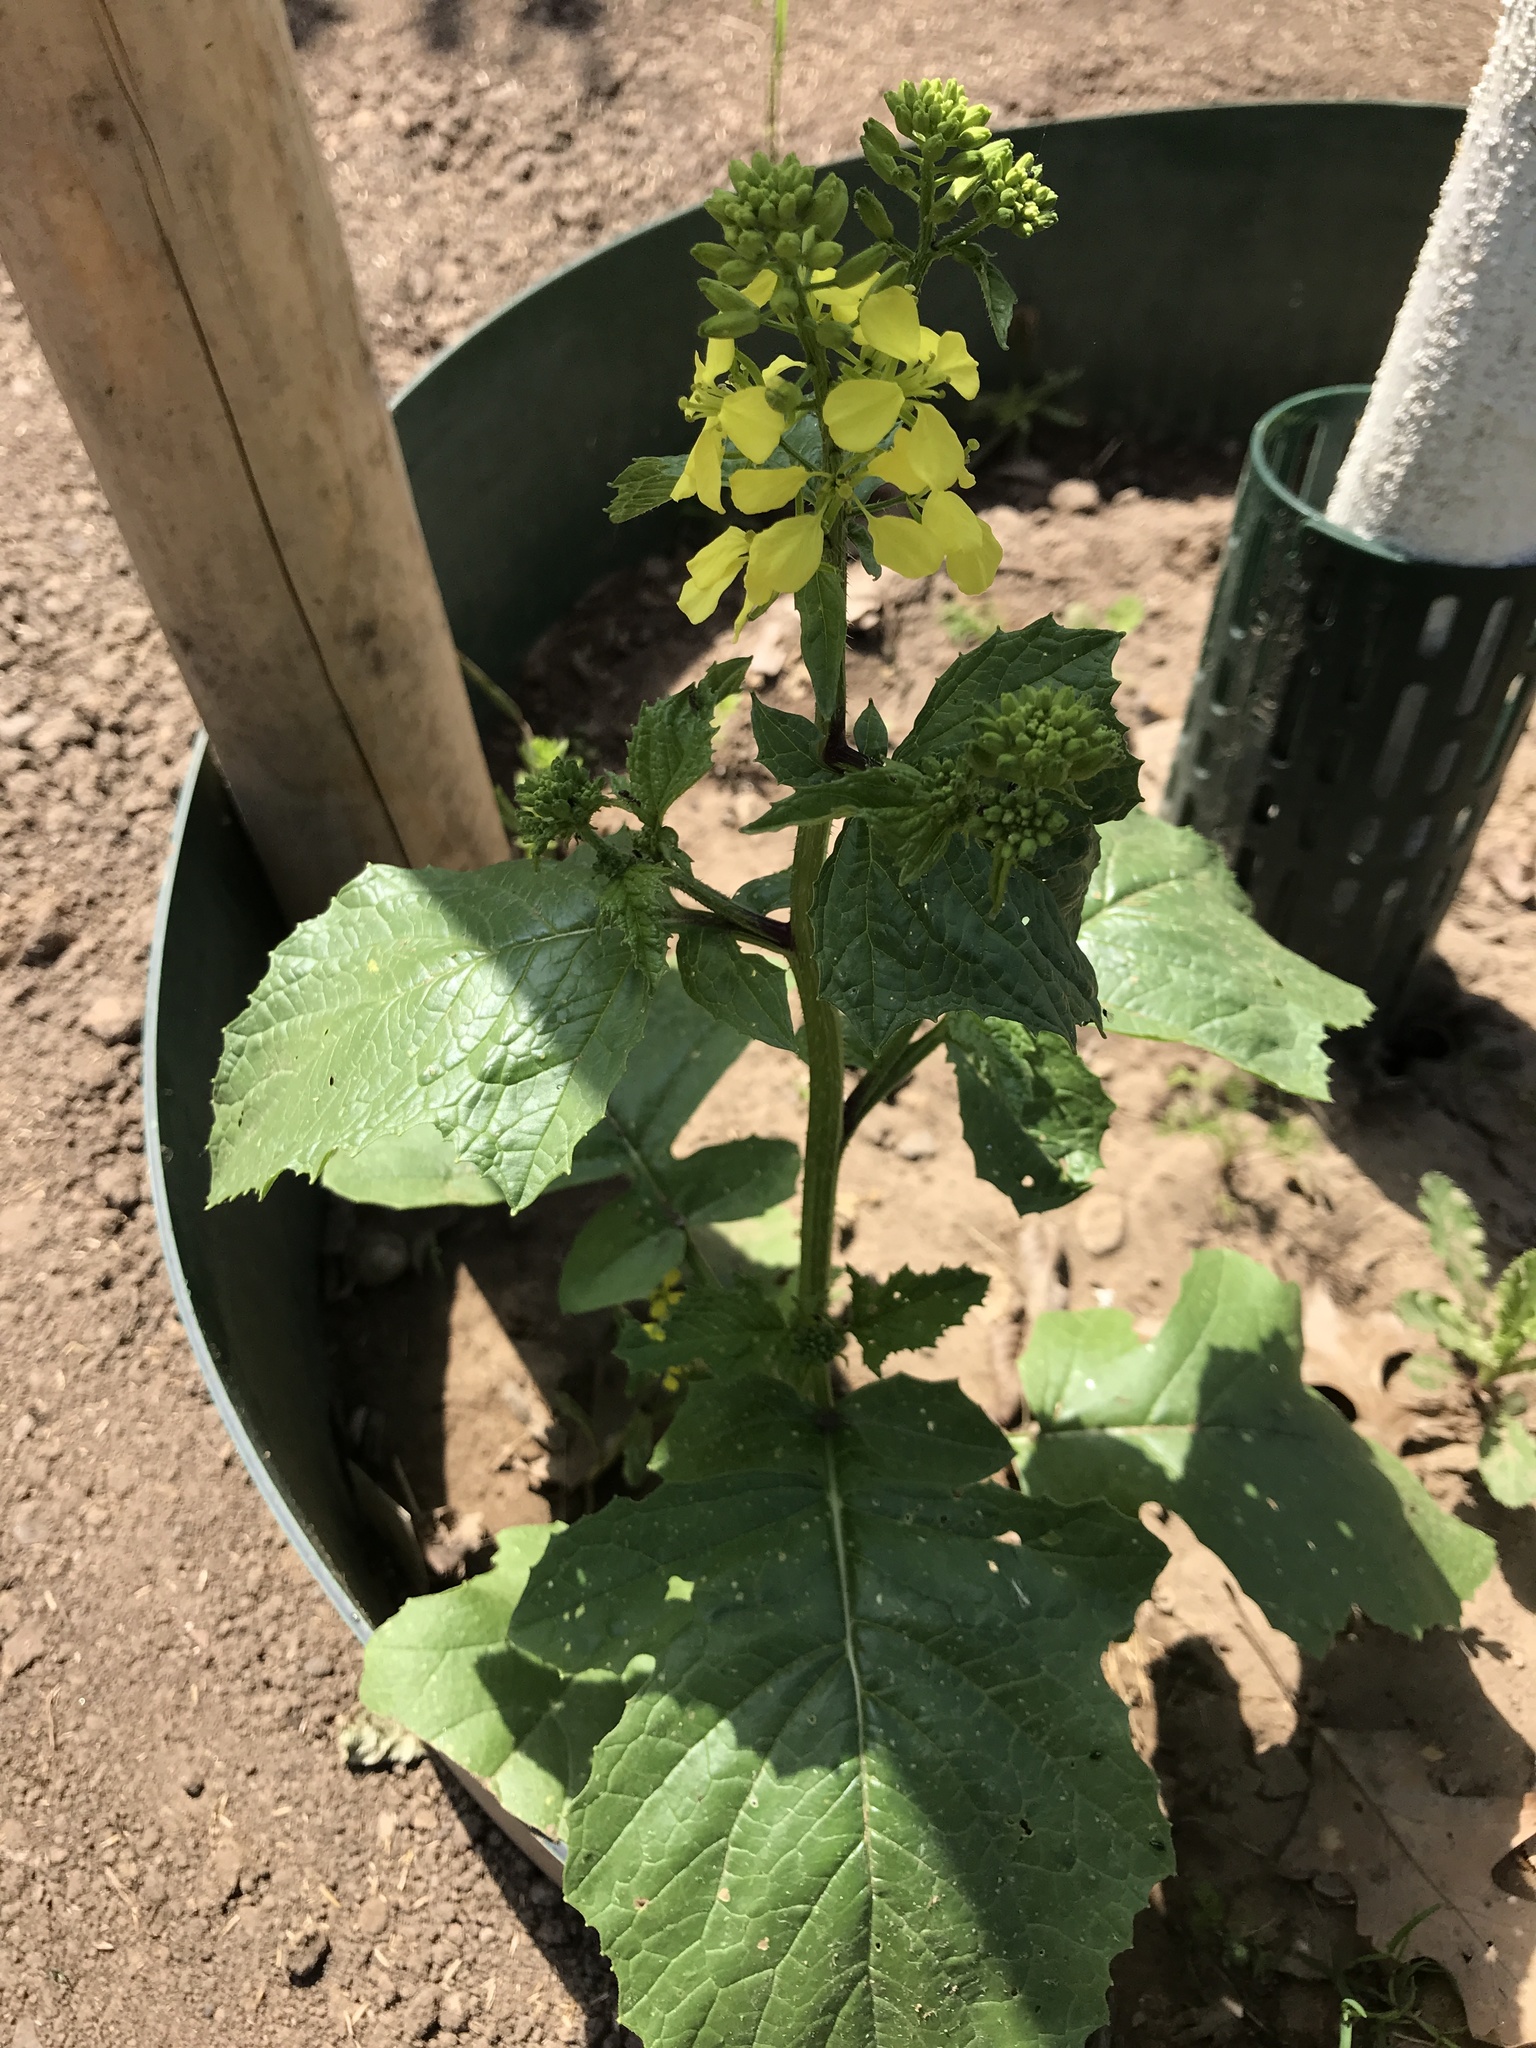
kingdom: Plantae
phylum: Tracheophyta
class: Magnoliopsida
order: Brassicales
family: Brassicaceae
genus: Sinapis
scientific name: Sinapis arvensis
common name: Charlock
